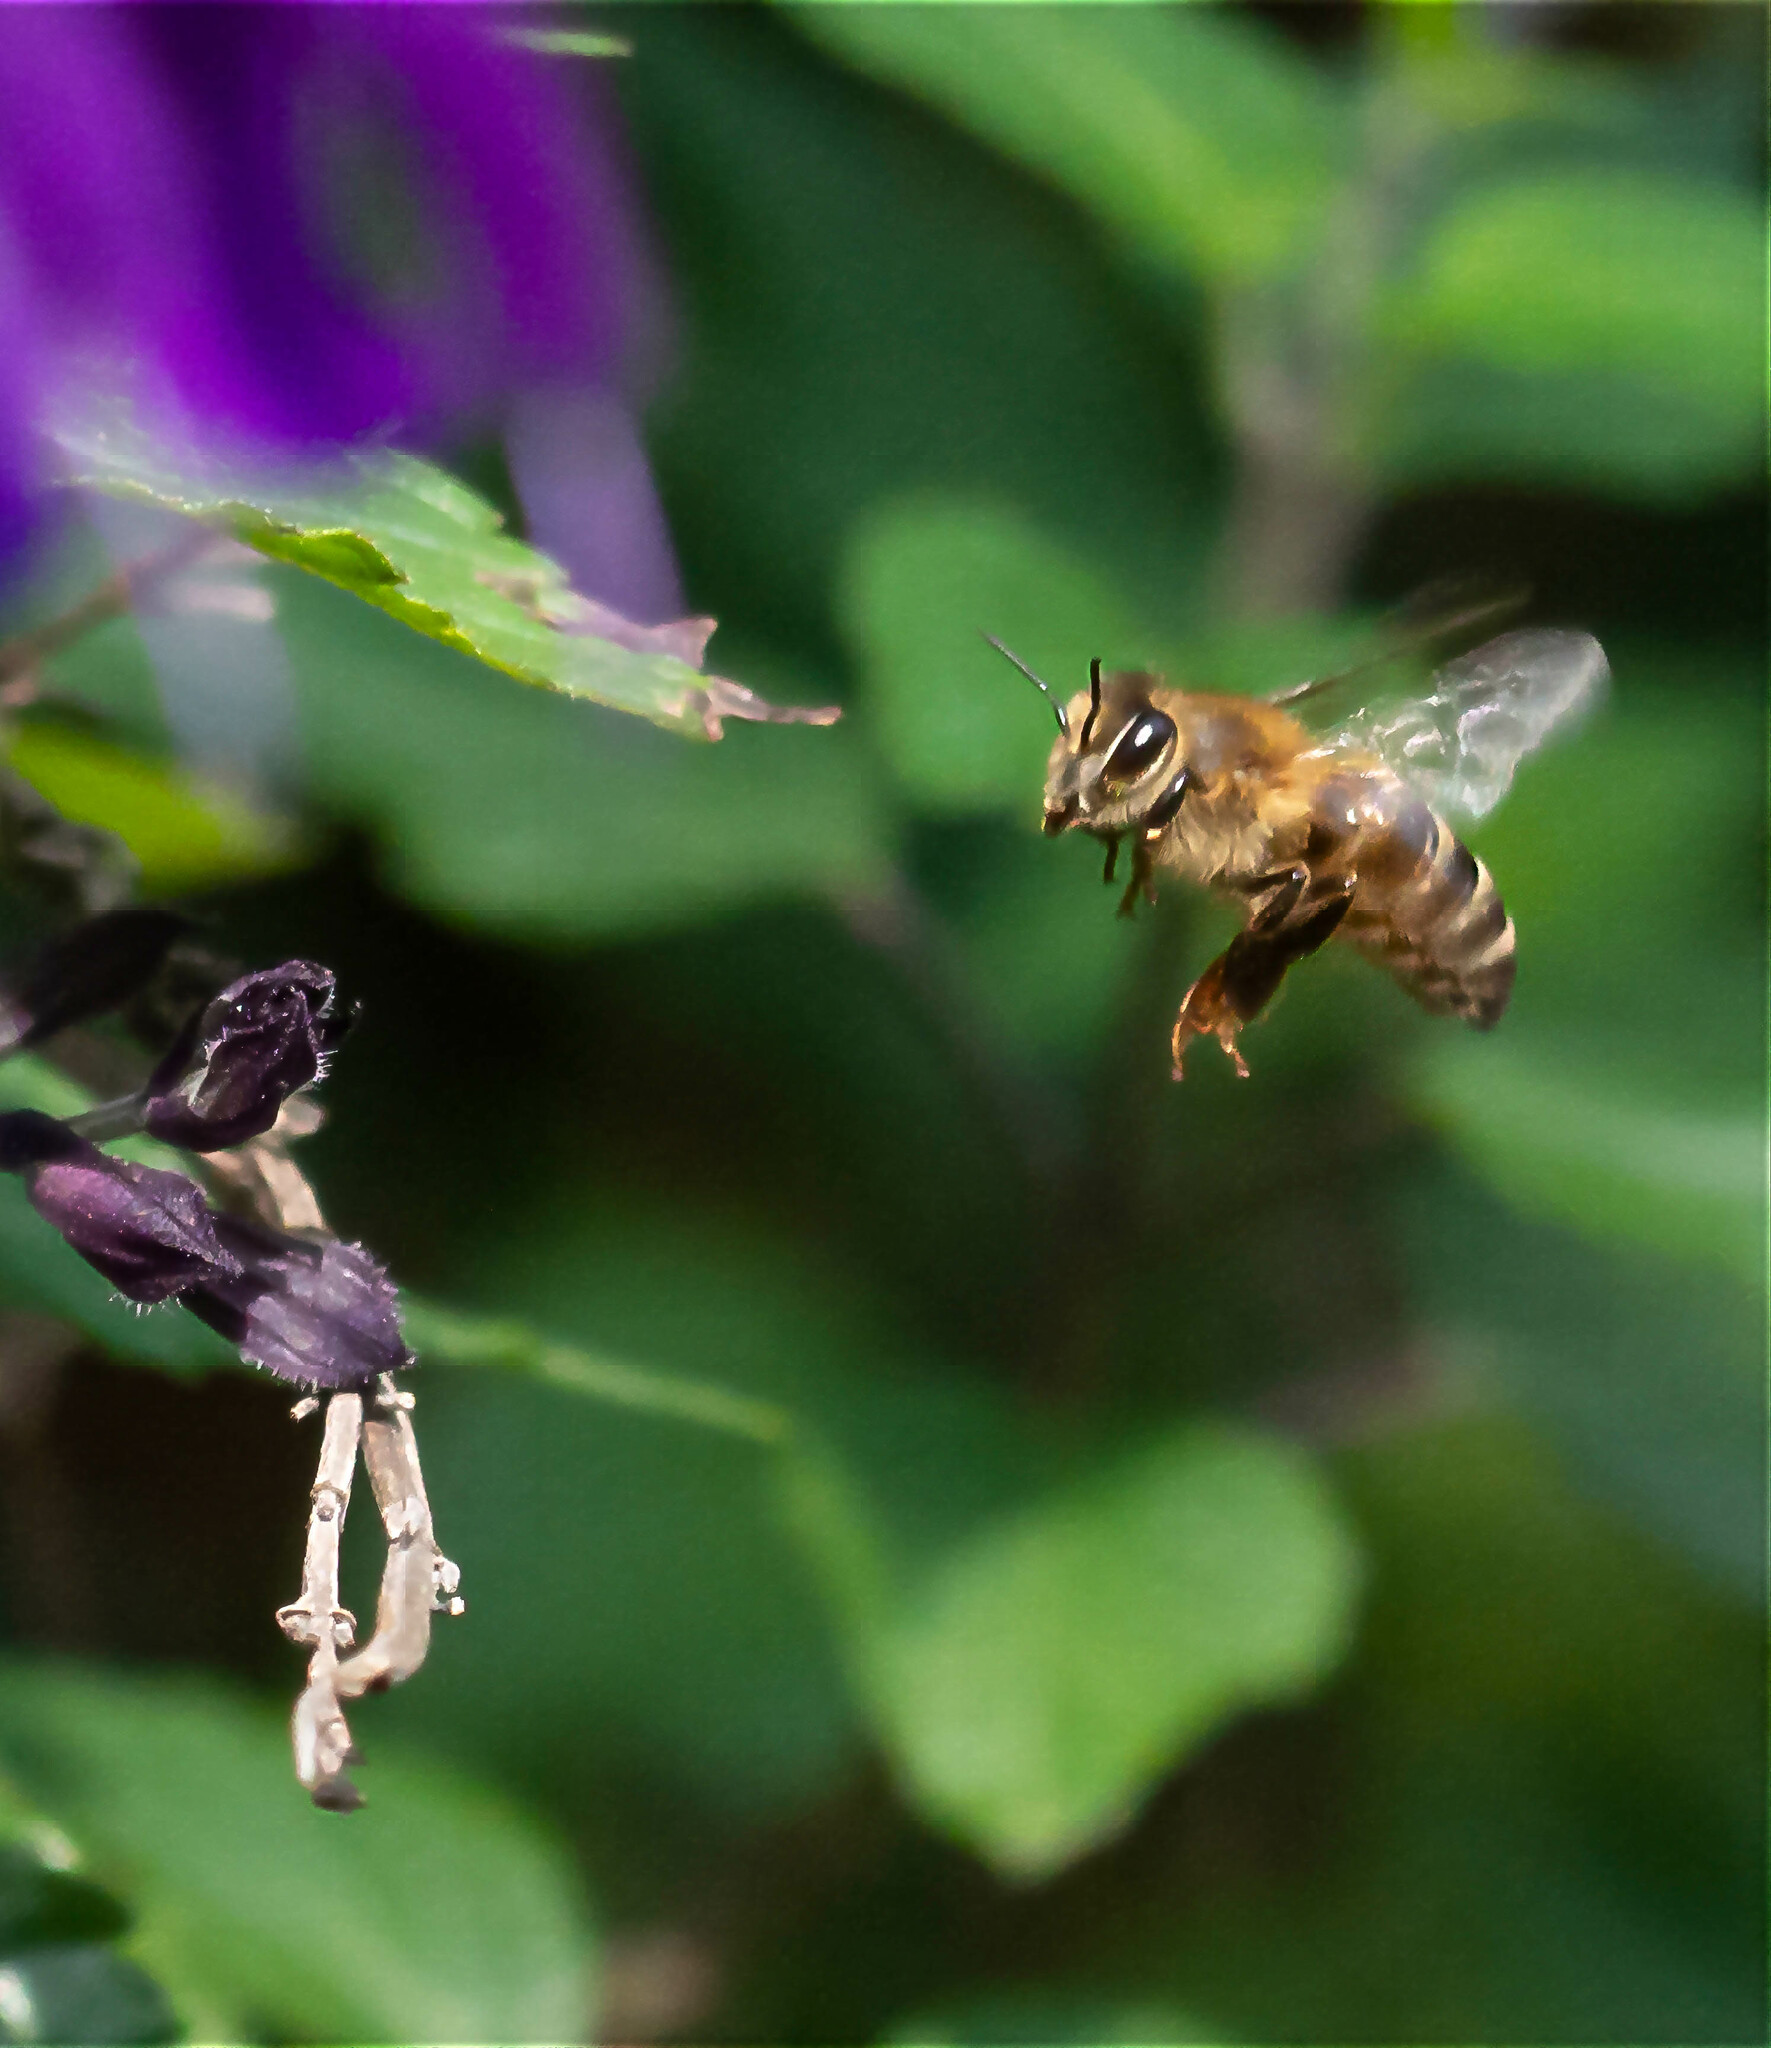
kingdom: Animalia
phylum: Arthropoda
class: Insecta
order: Hymenoptera
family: Apidae
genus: Apis
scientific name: Apis mellifera
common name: Honey bee
